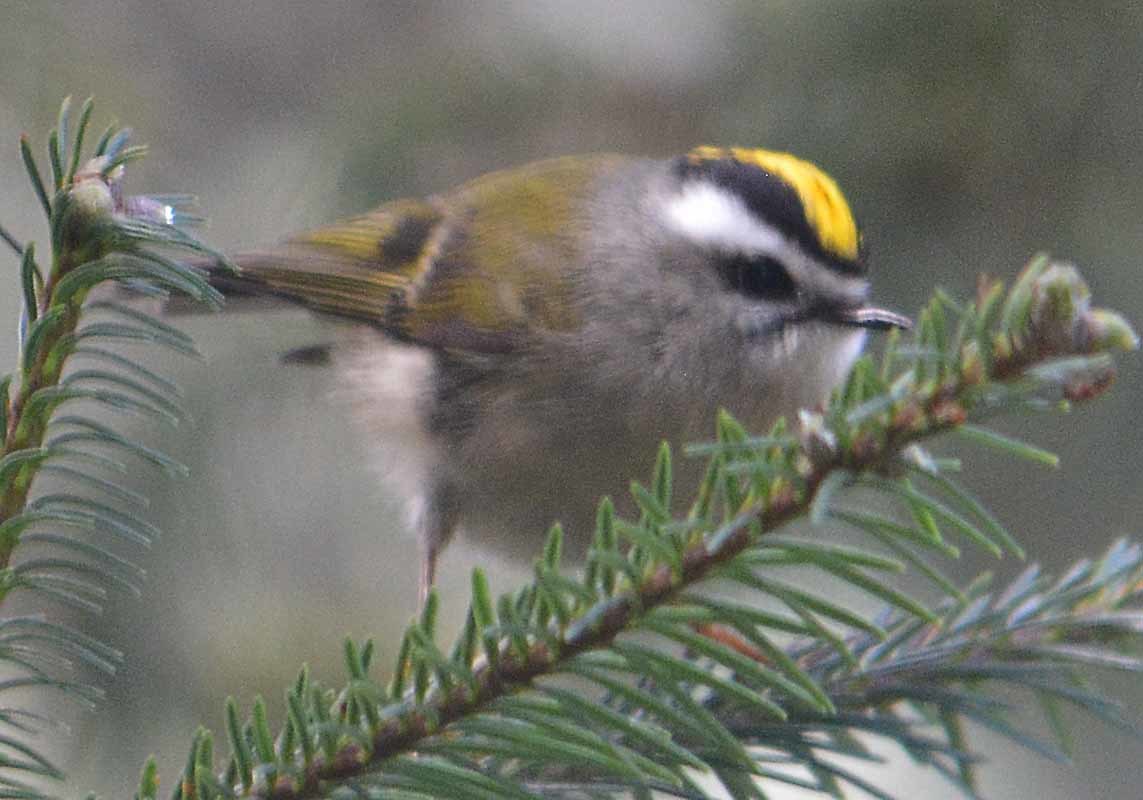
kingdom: Animalia
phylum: Chordata
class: Aves
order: Passeriformes
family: Regulidae
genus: Regulus
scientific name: Regulus satrapa
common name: Golden-crowned kinglet
